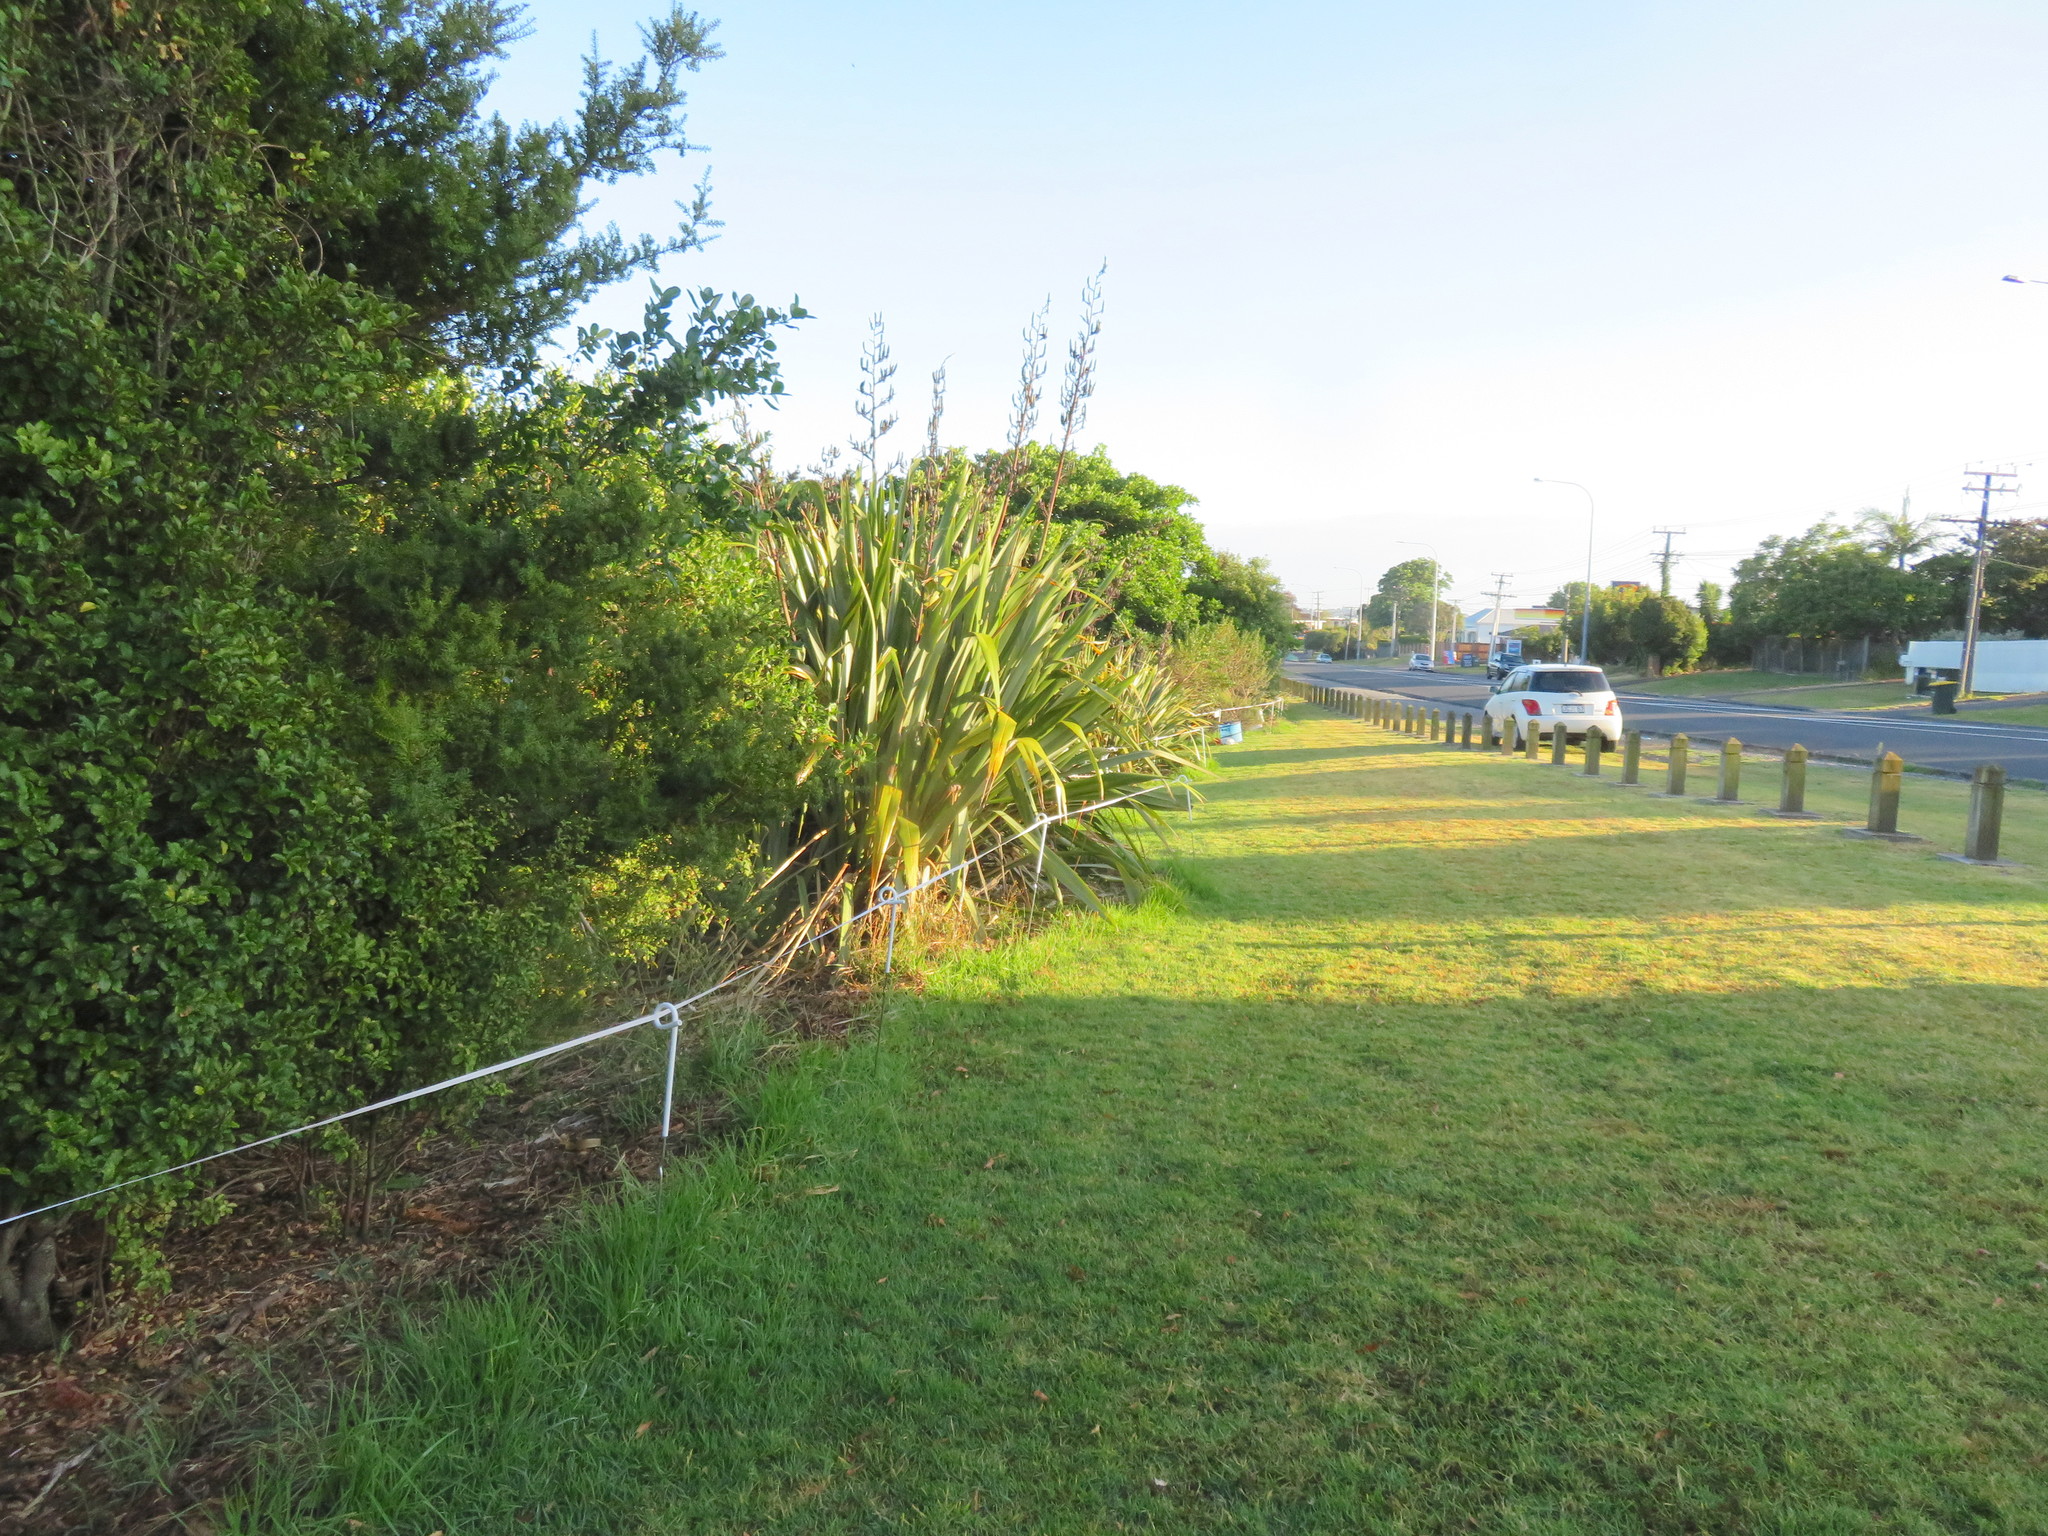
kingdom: Plantae
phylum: Tracheophyta
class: Liliopsida
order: Poales
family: Poaceae
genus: Cenchrus
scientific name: Cenchrus clandestinus
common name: Kikuyugrass
